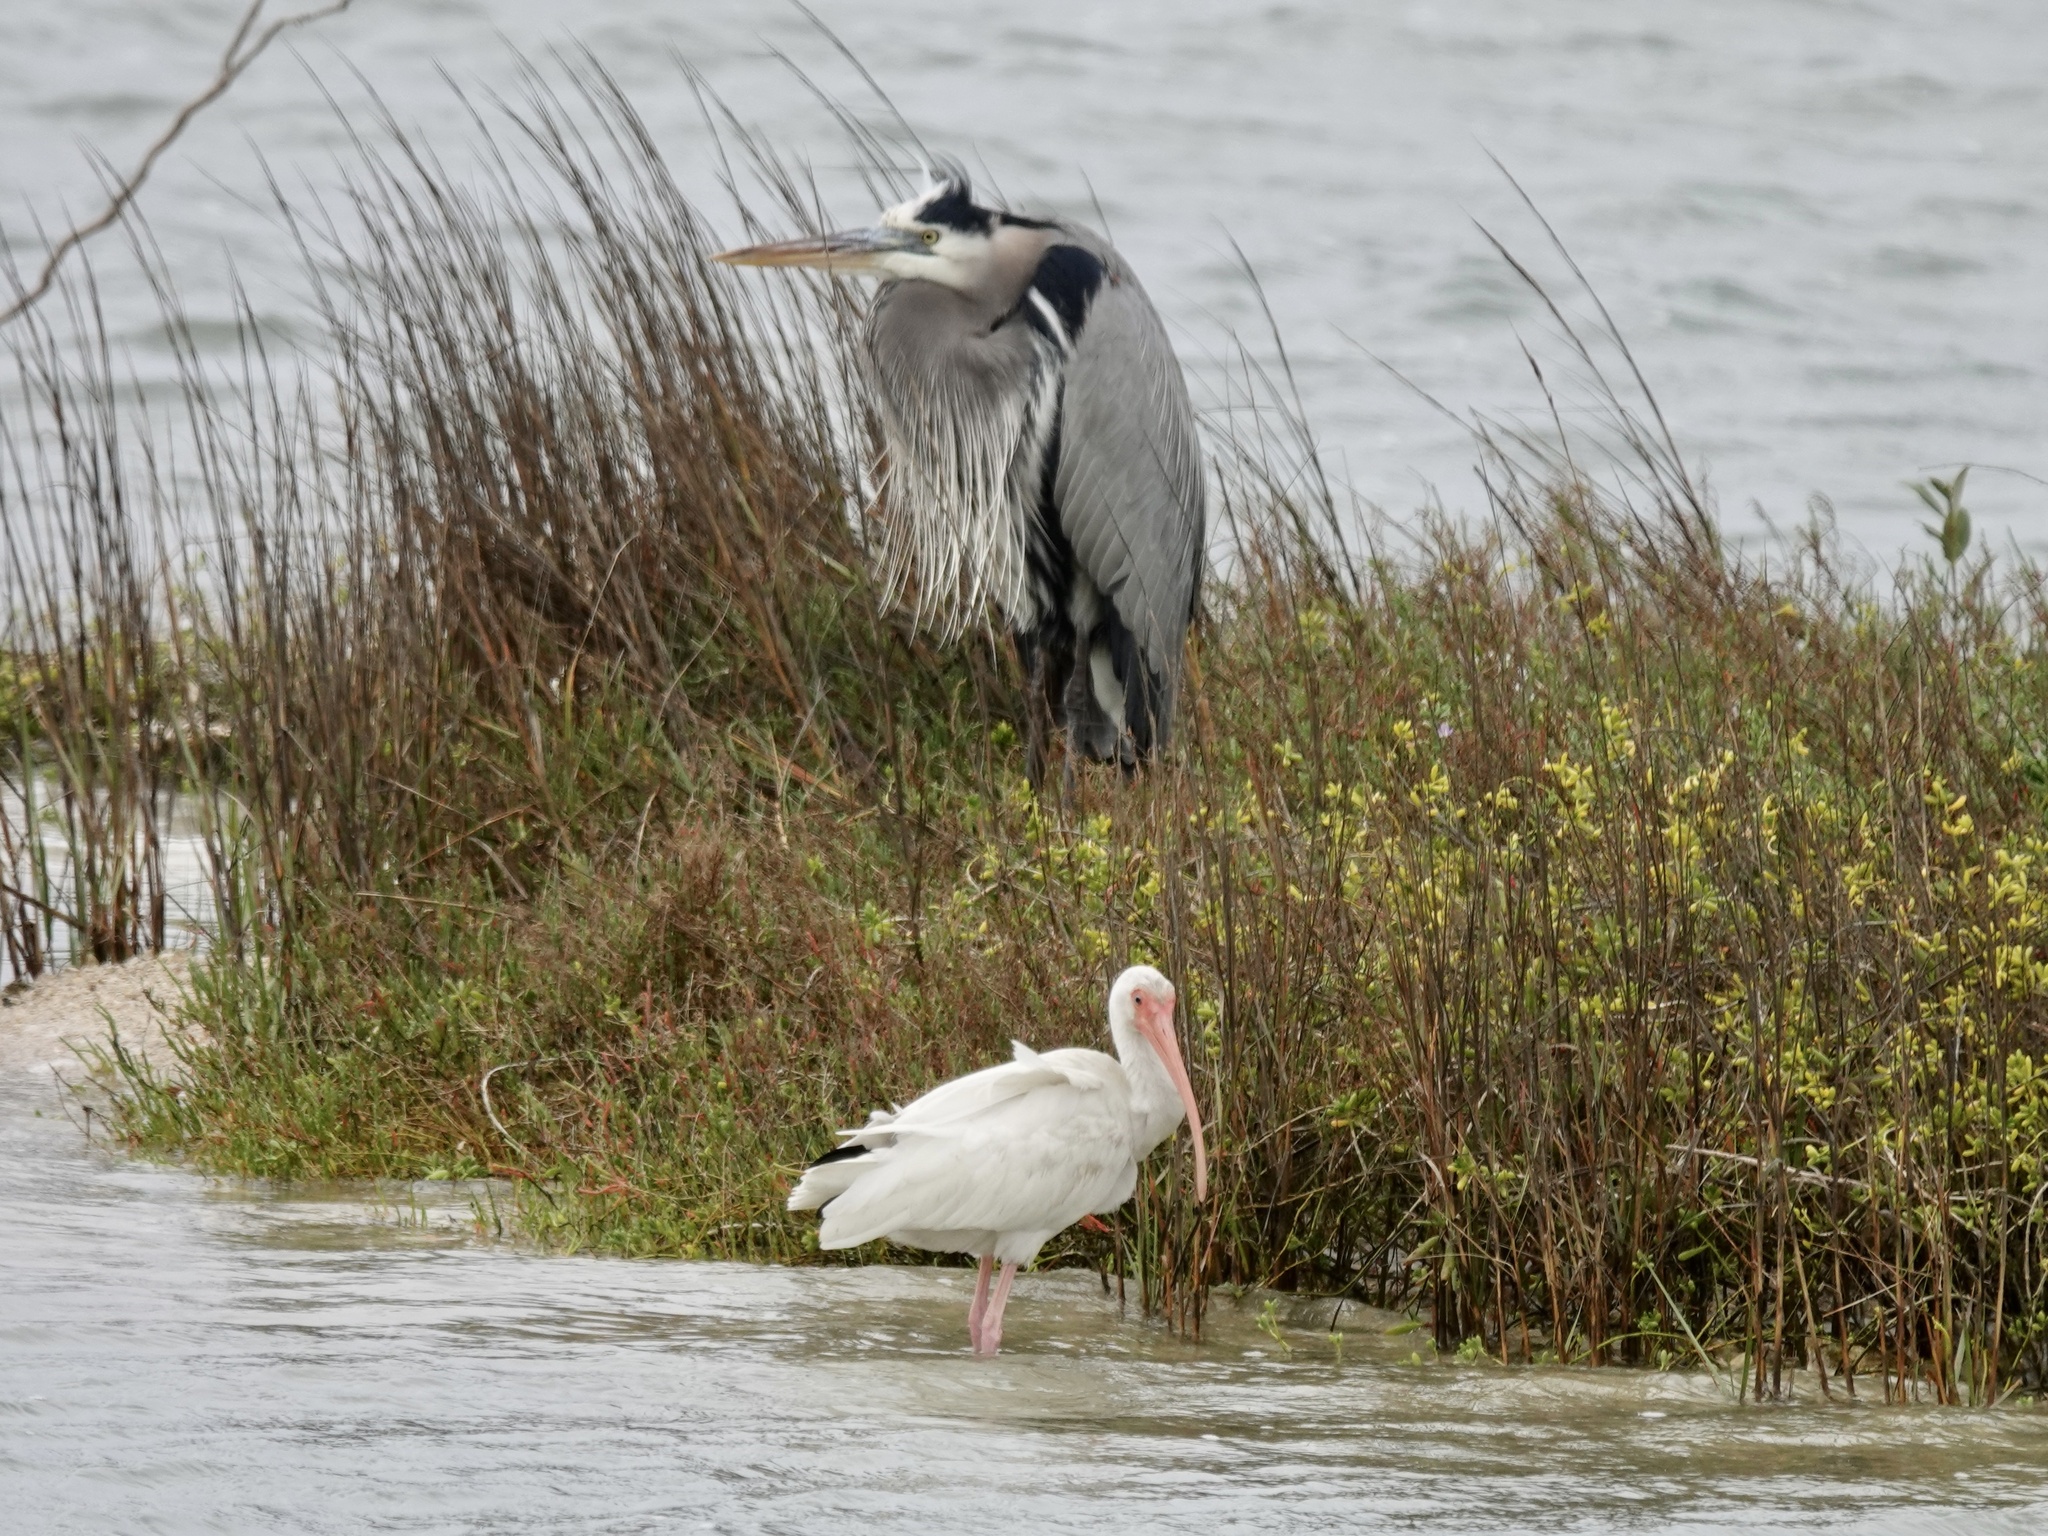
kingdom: Animalia
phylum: Chordata
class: Aves
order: Pelecaniformes
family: Ardeidae
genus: Ardea
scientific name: Ardea herodias
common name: Great blue heron
